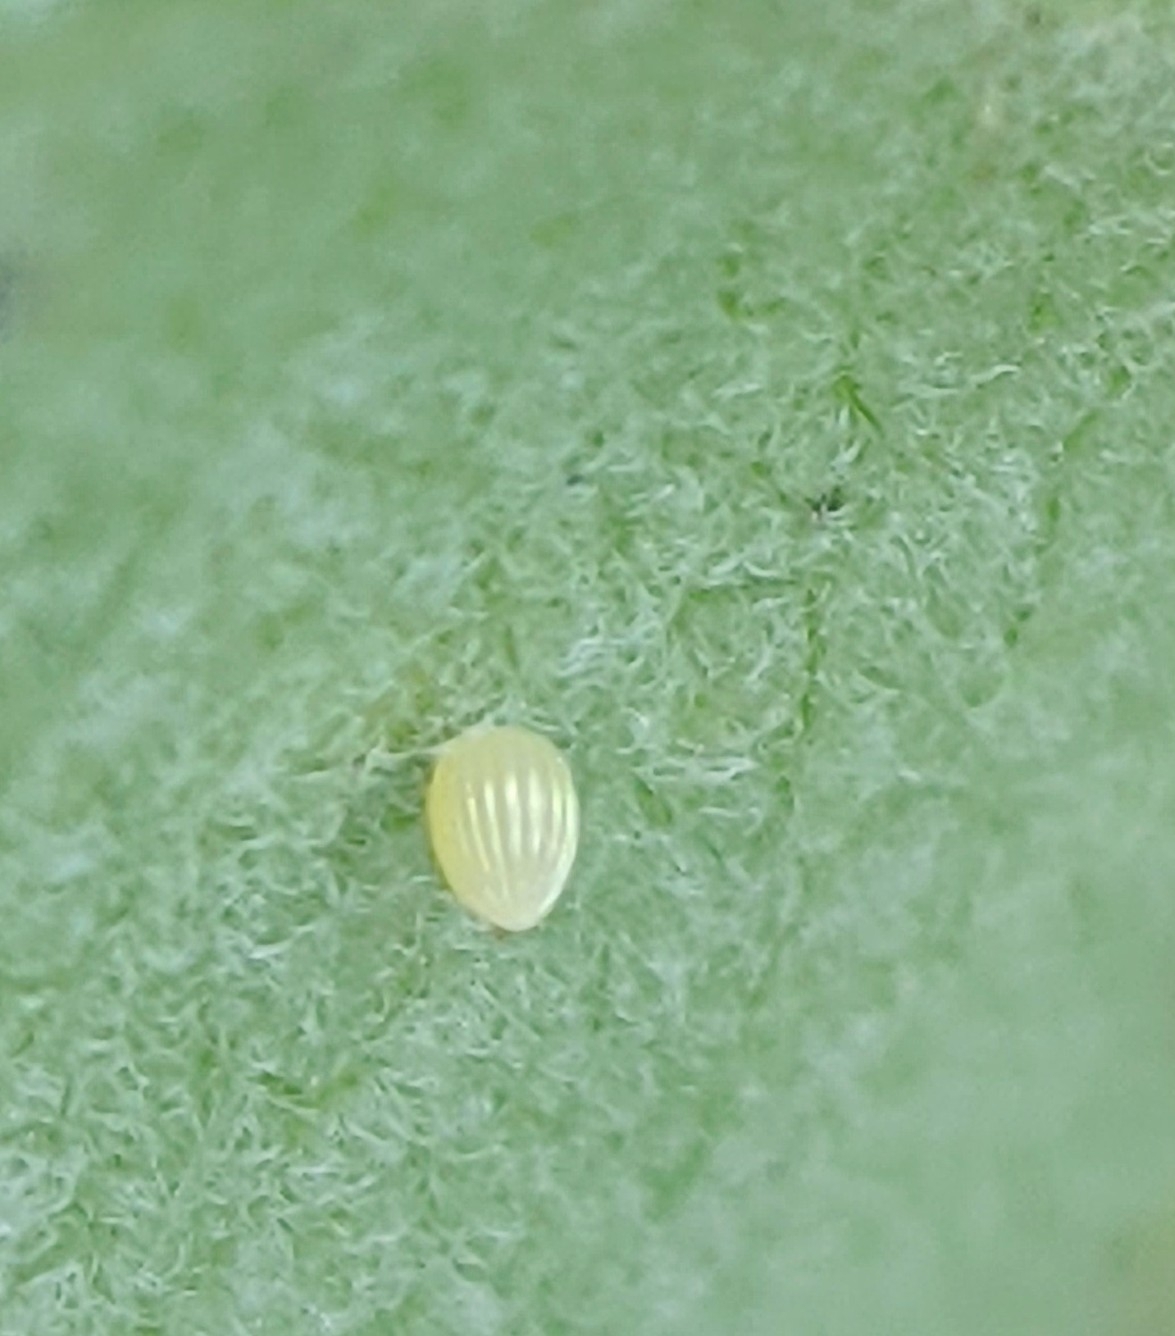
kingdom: Animalia
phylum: Arthropoda
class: Insecta
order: Lepidoptera
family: Nymphalidae
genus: Danaus
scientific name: Danaus plexippus
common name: Monarch
